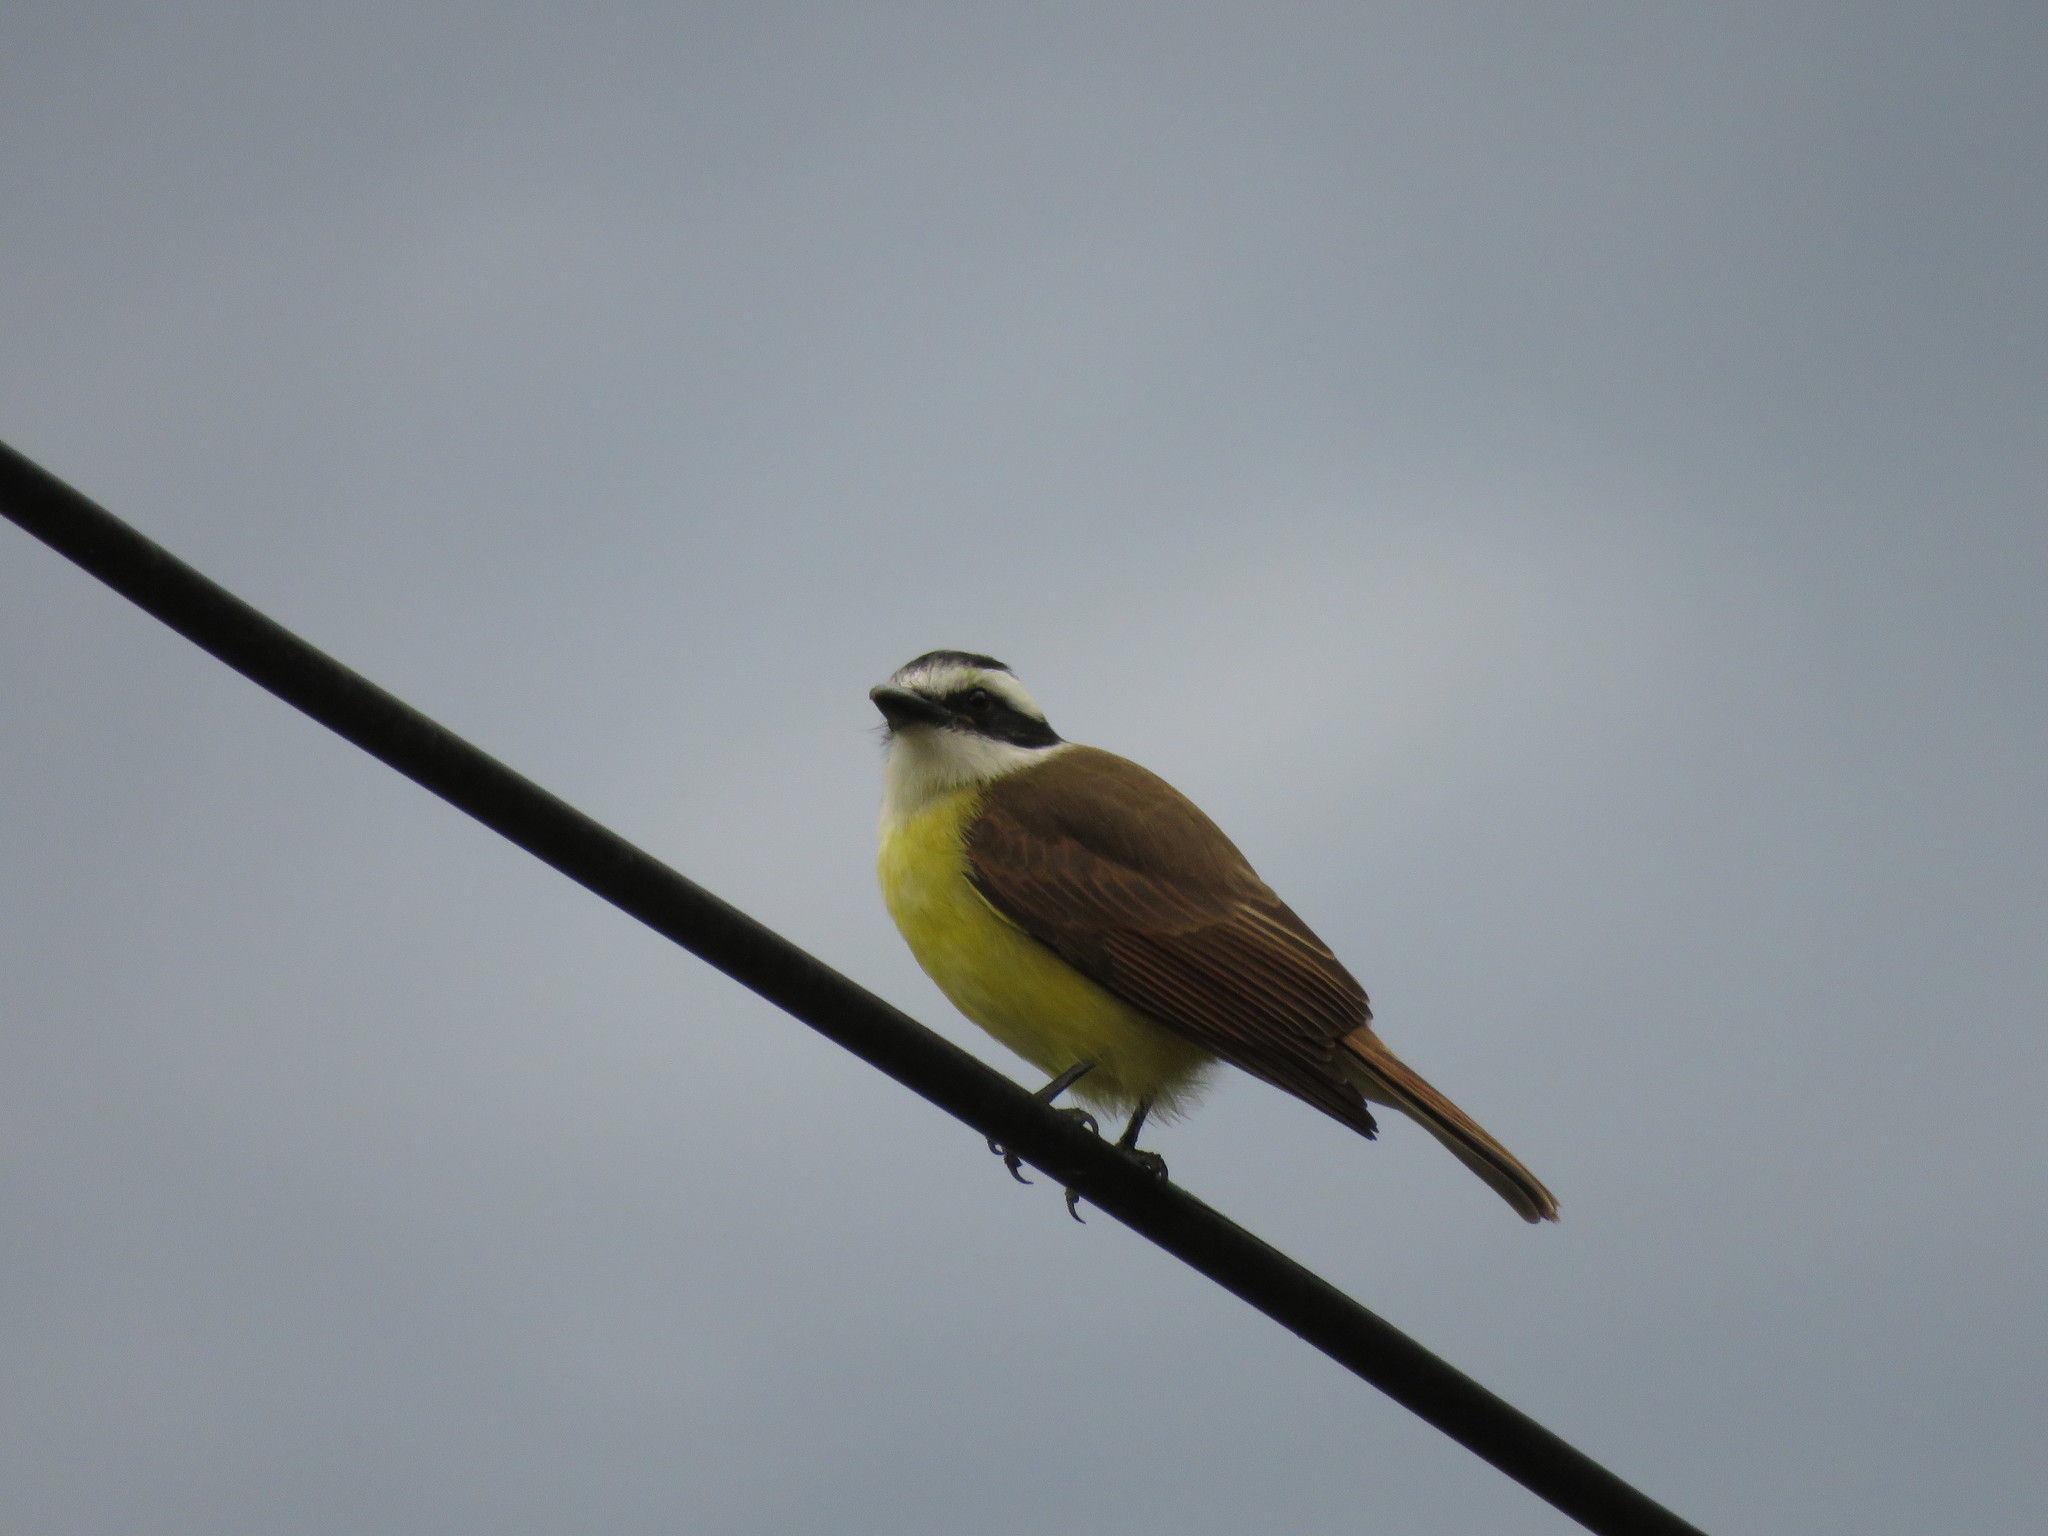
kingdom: Animalia
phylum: Chordata
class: Aves
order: Passeriformes
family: Tyrannidae
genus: Pitangus
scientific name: Pitangus sulphuratus
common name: Great kiskadee
